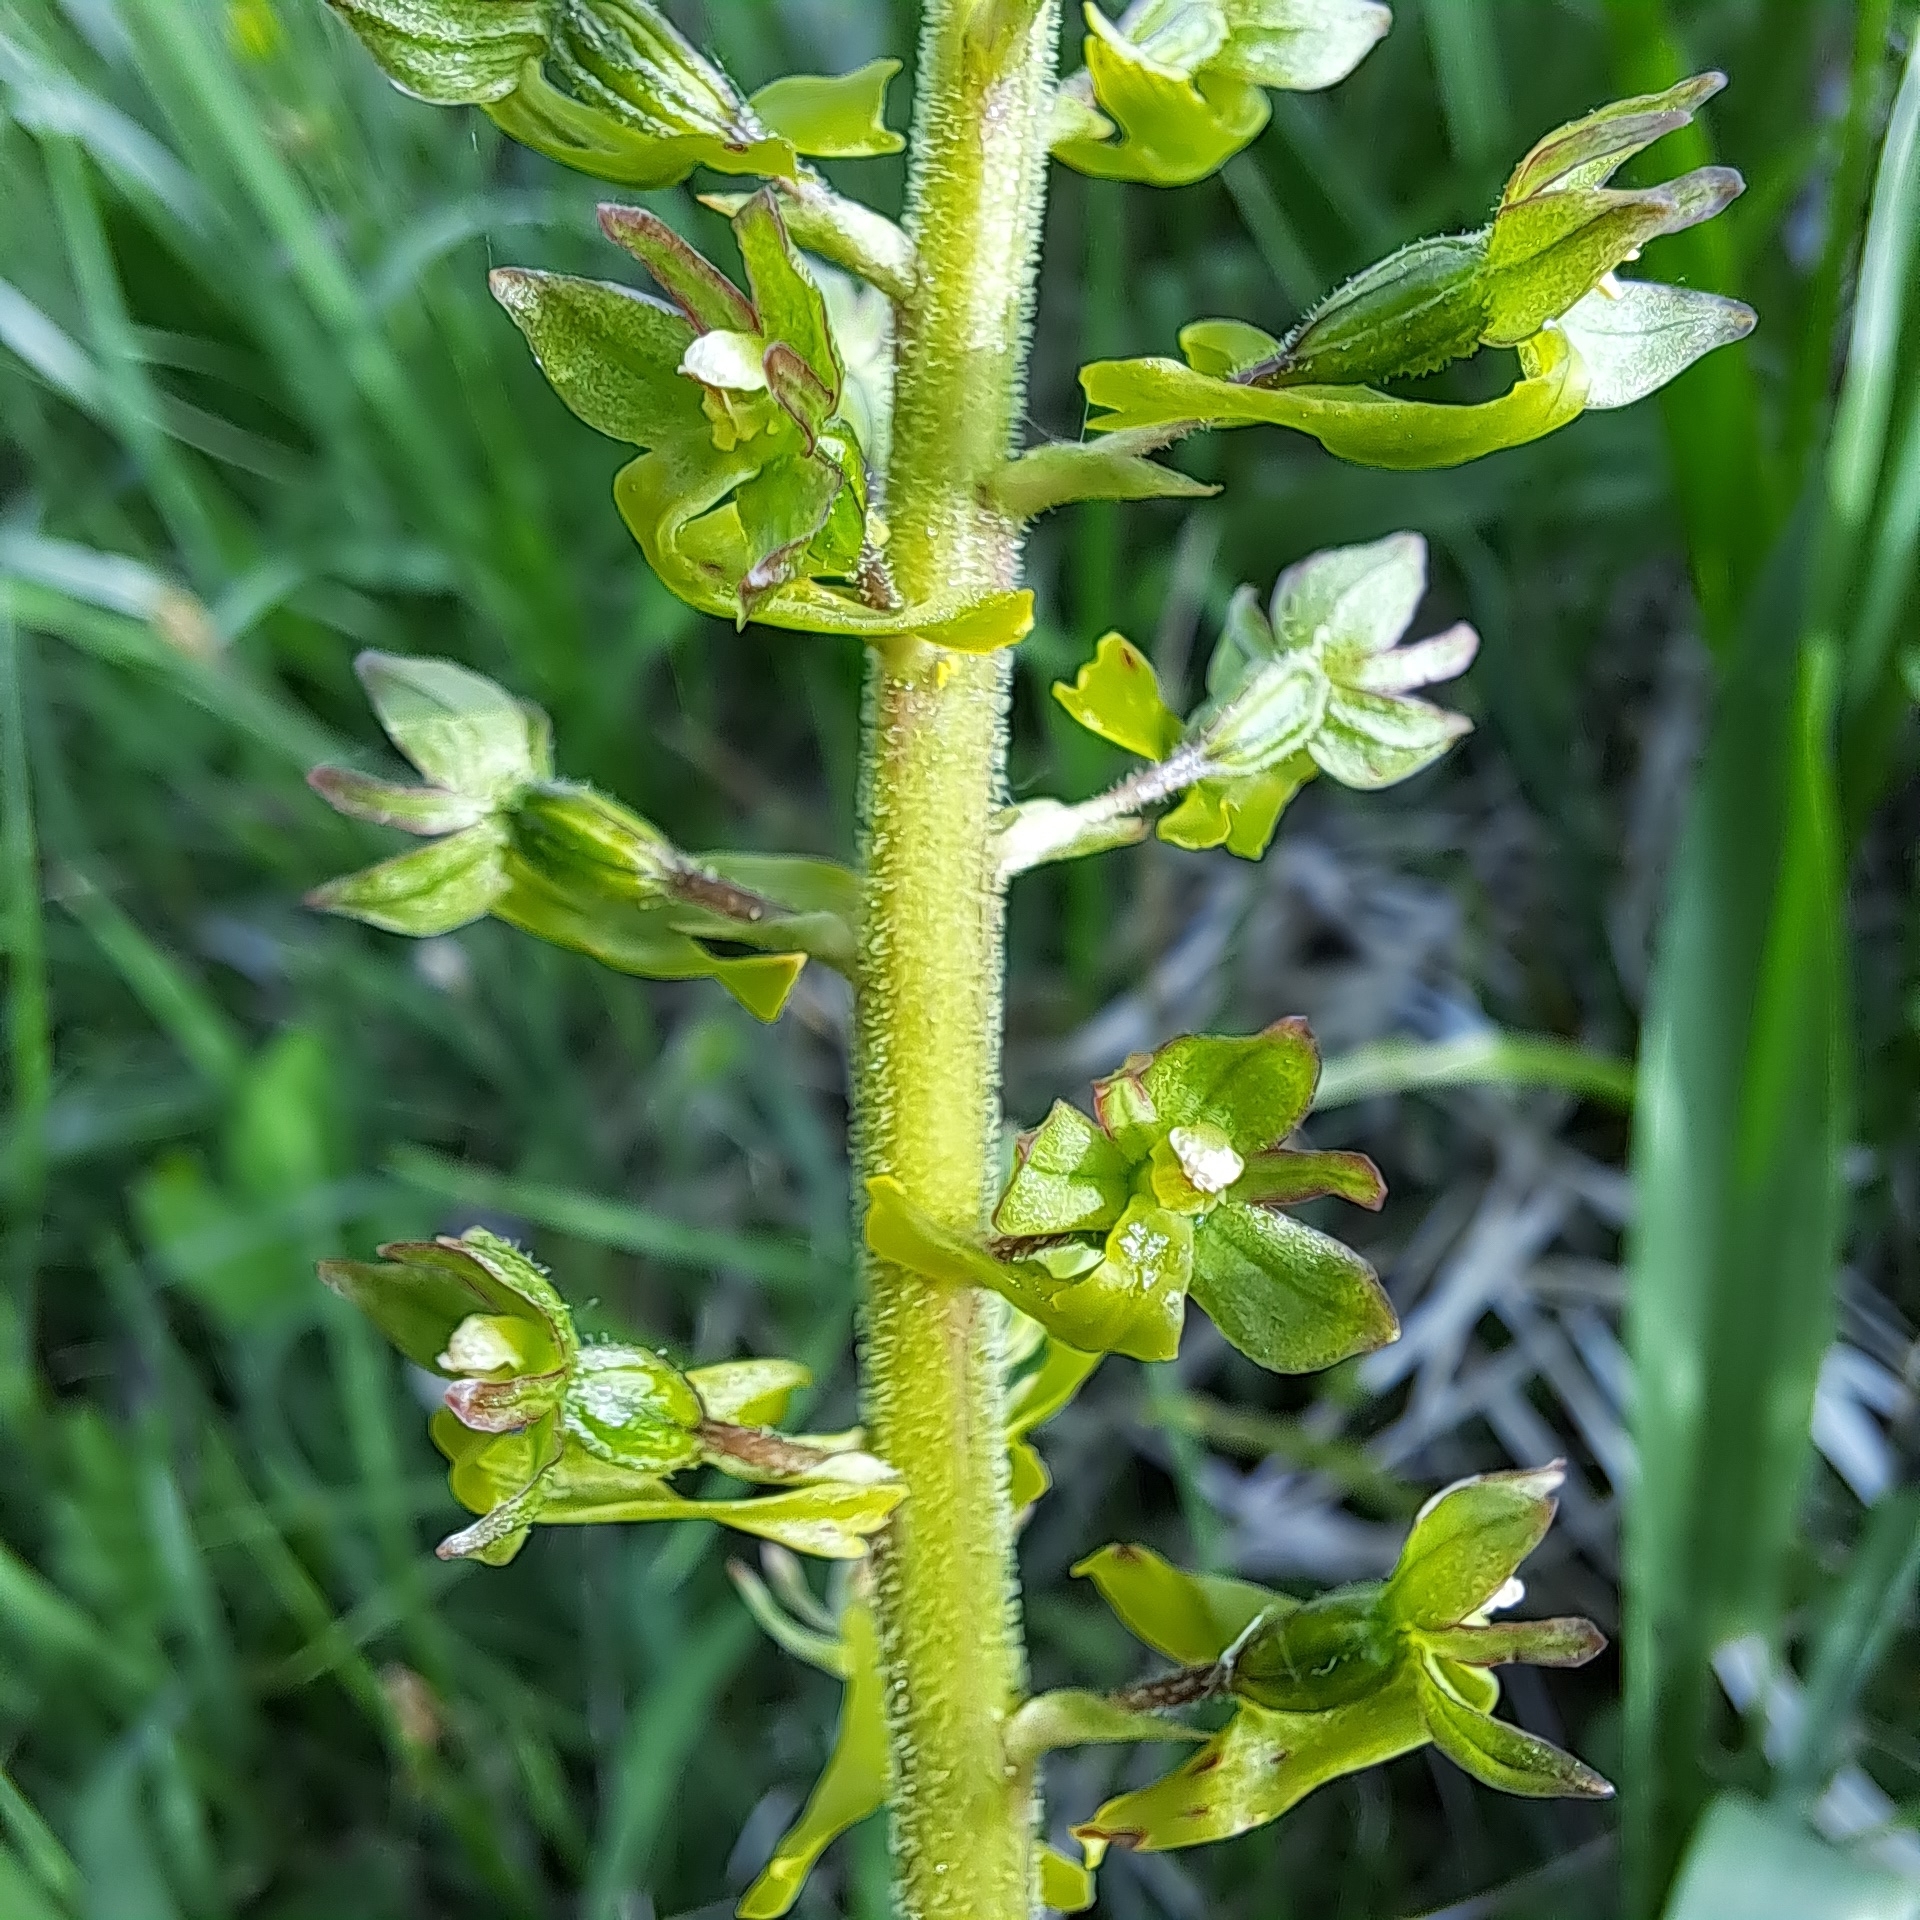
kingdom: Plantae
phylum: Tracheophyta
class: Liliopsida
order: Asparagales
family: Orchidaceae
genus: Neottia
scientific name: Neottia ovata
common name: Common twayblade
